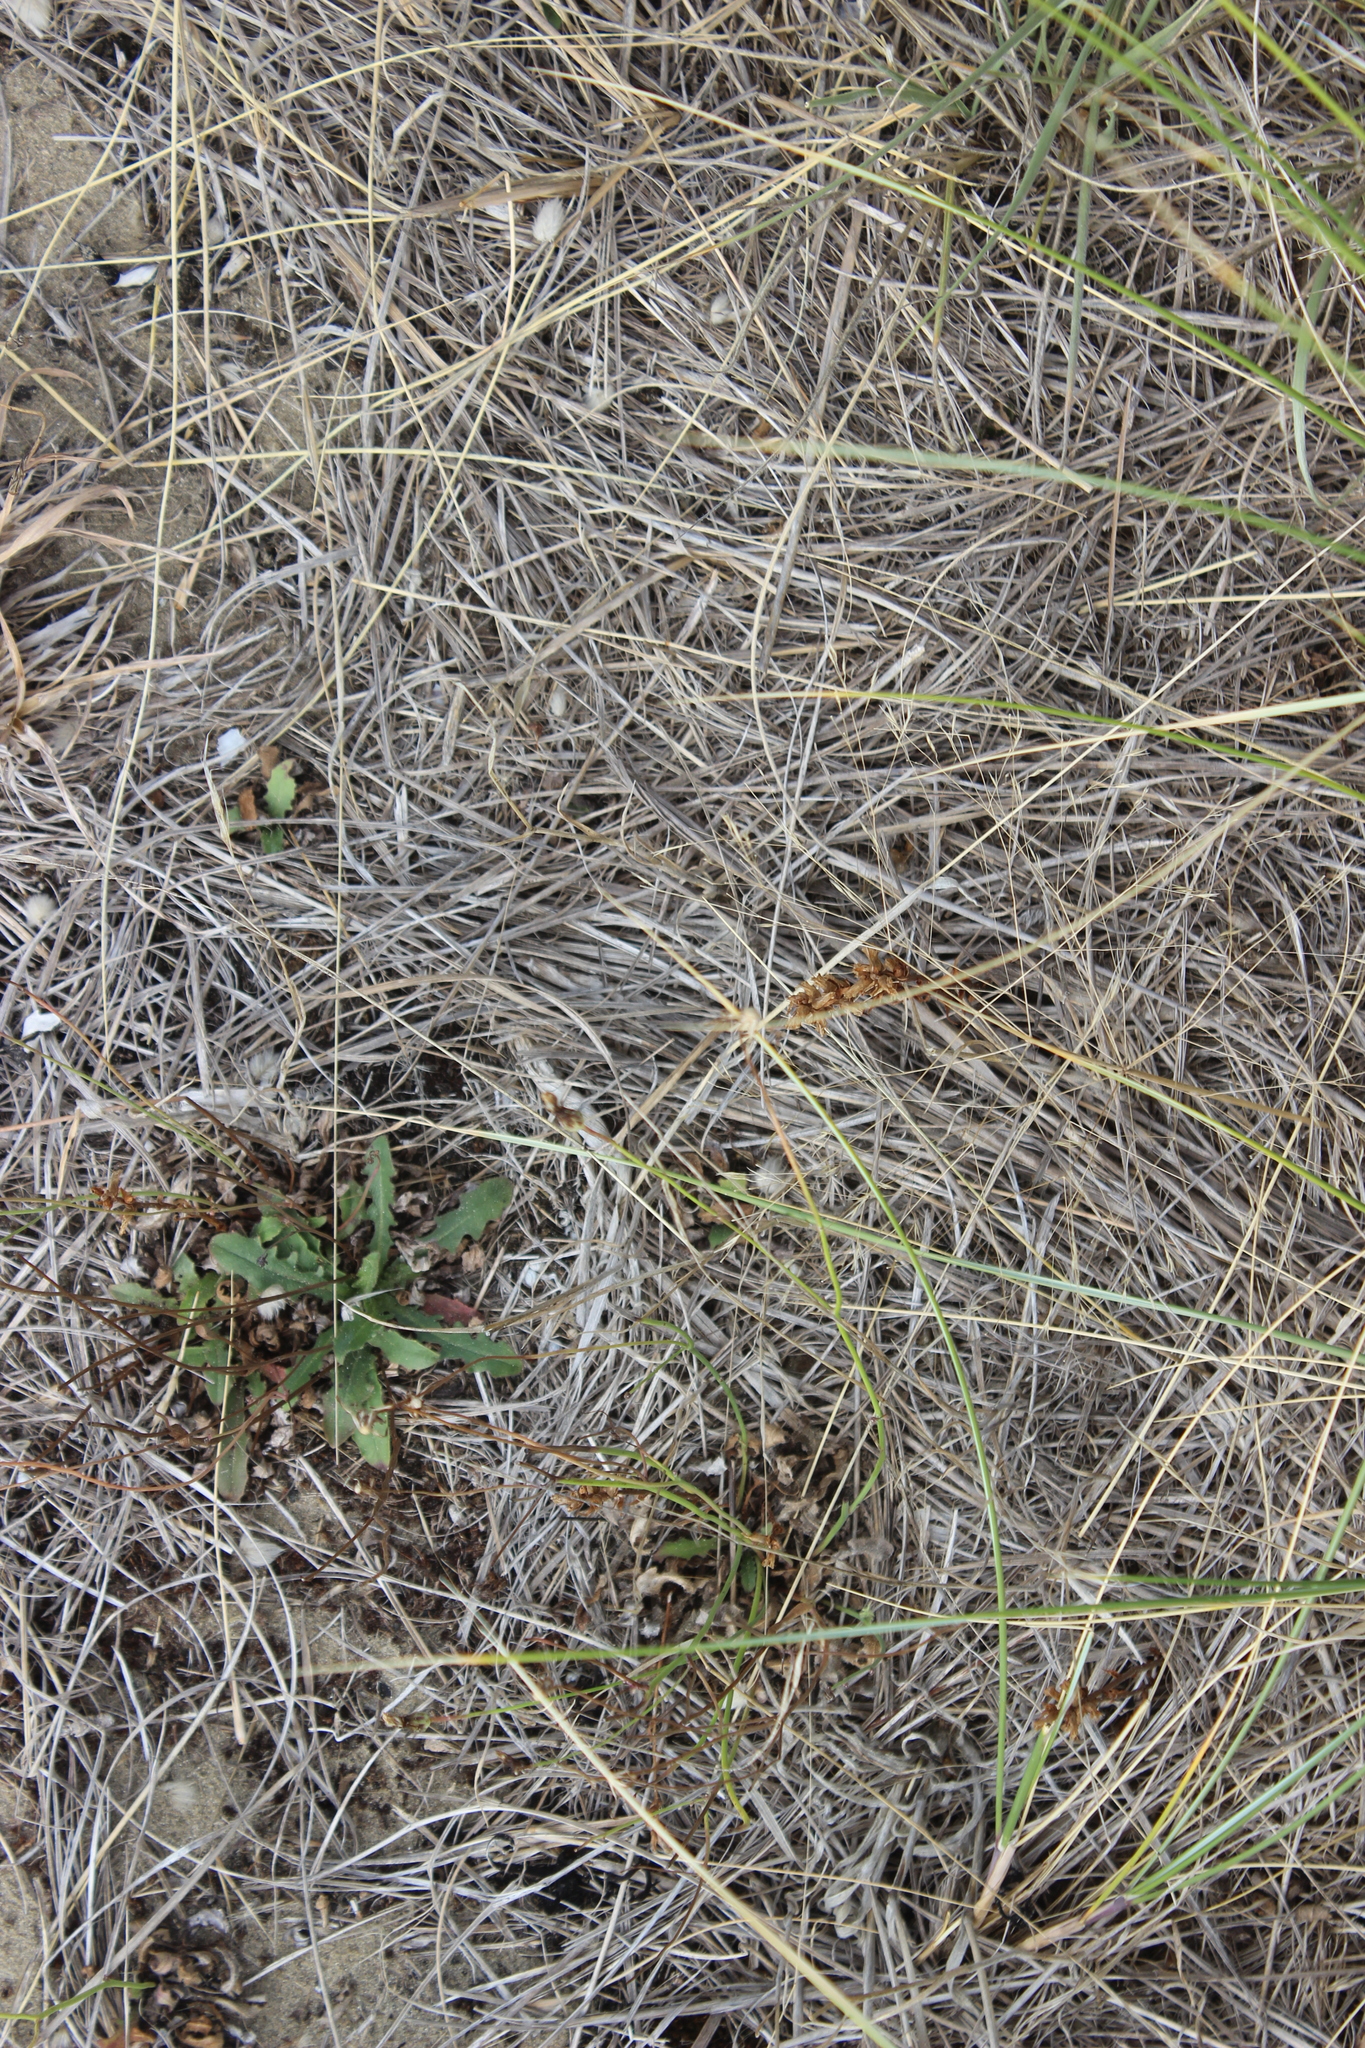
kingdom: Plantae
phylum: Tracheophyta
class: Magnoliopsida
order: Lamiales
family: Orobanchaceae
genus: Orobanche
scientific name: Orobanche minor
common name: Common broomrape
